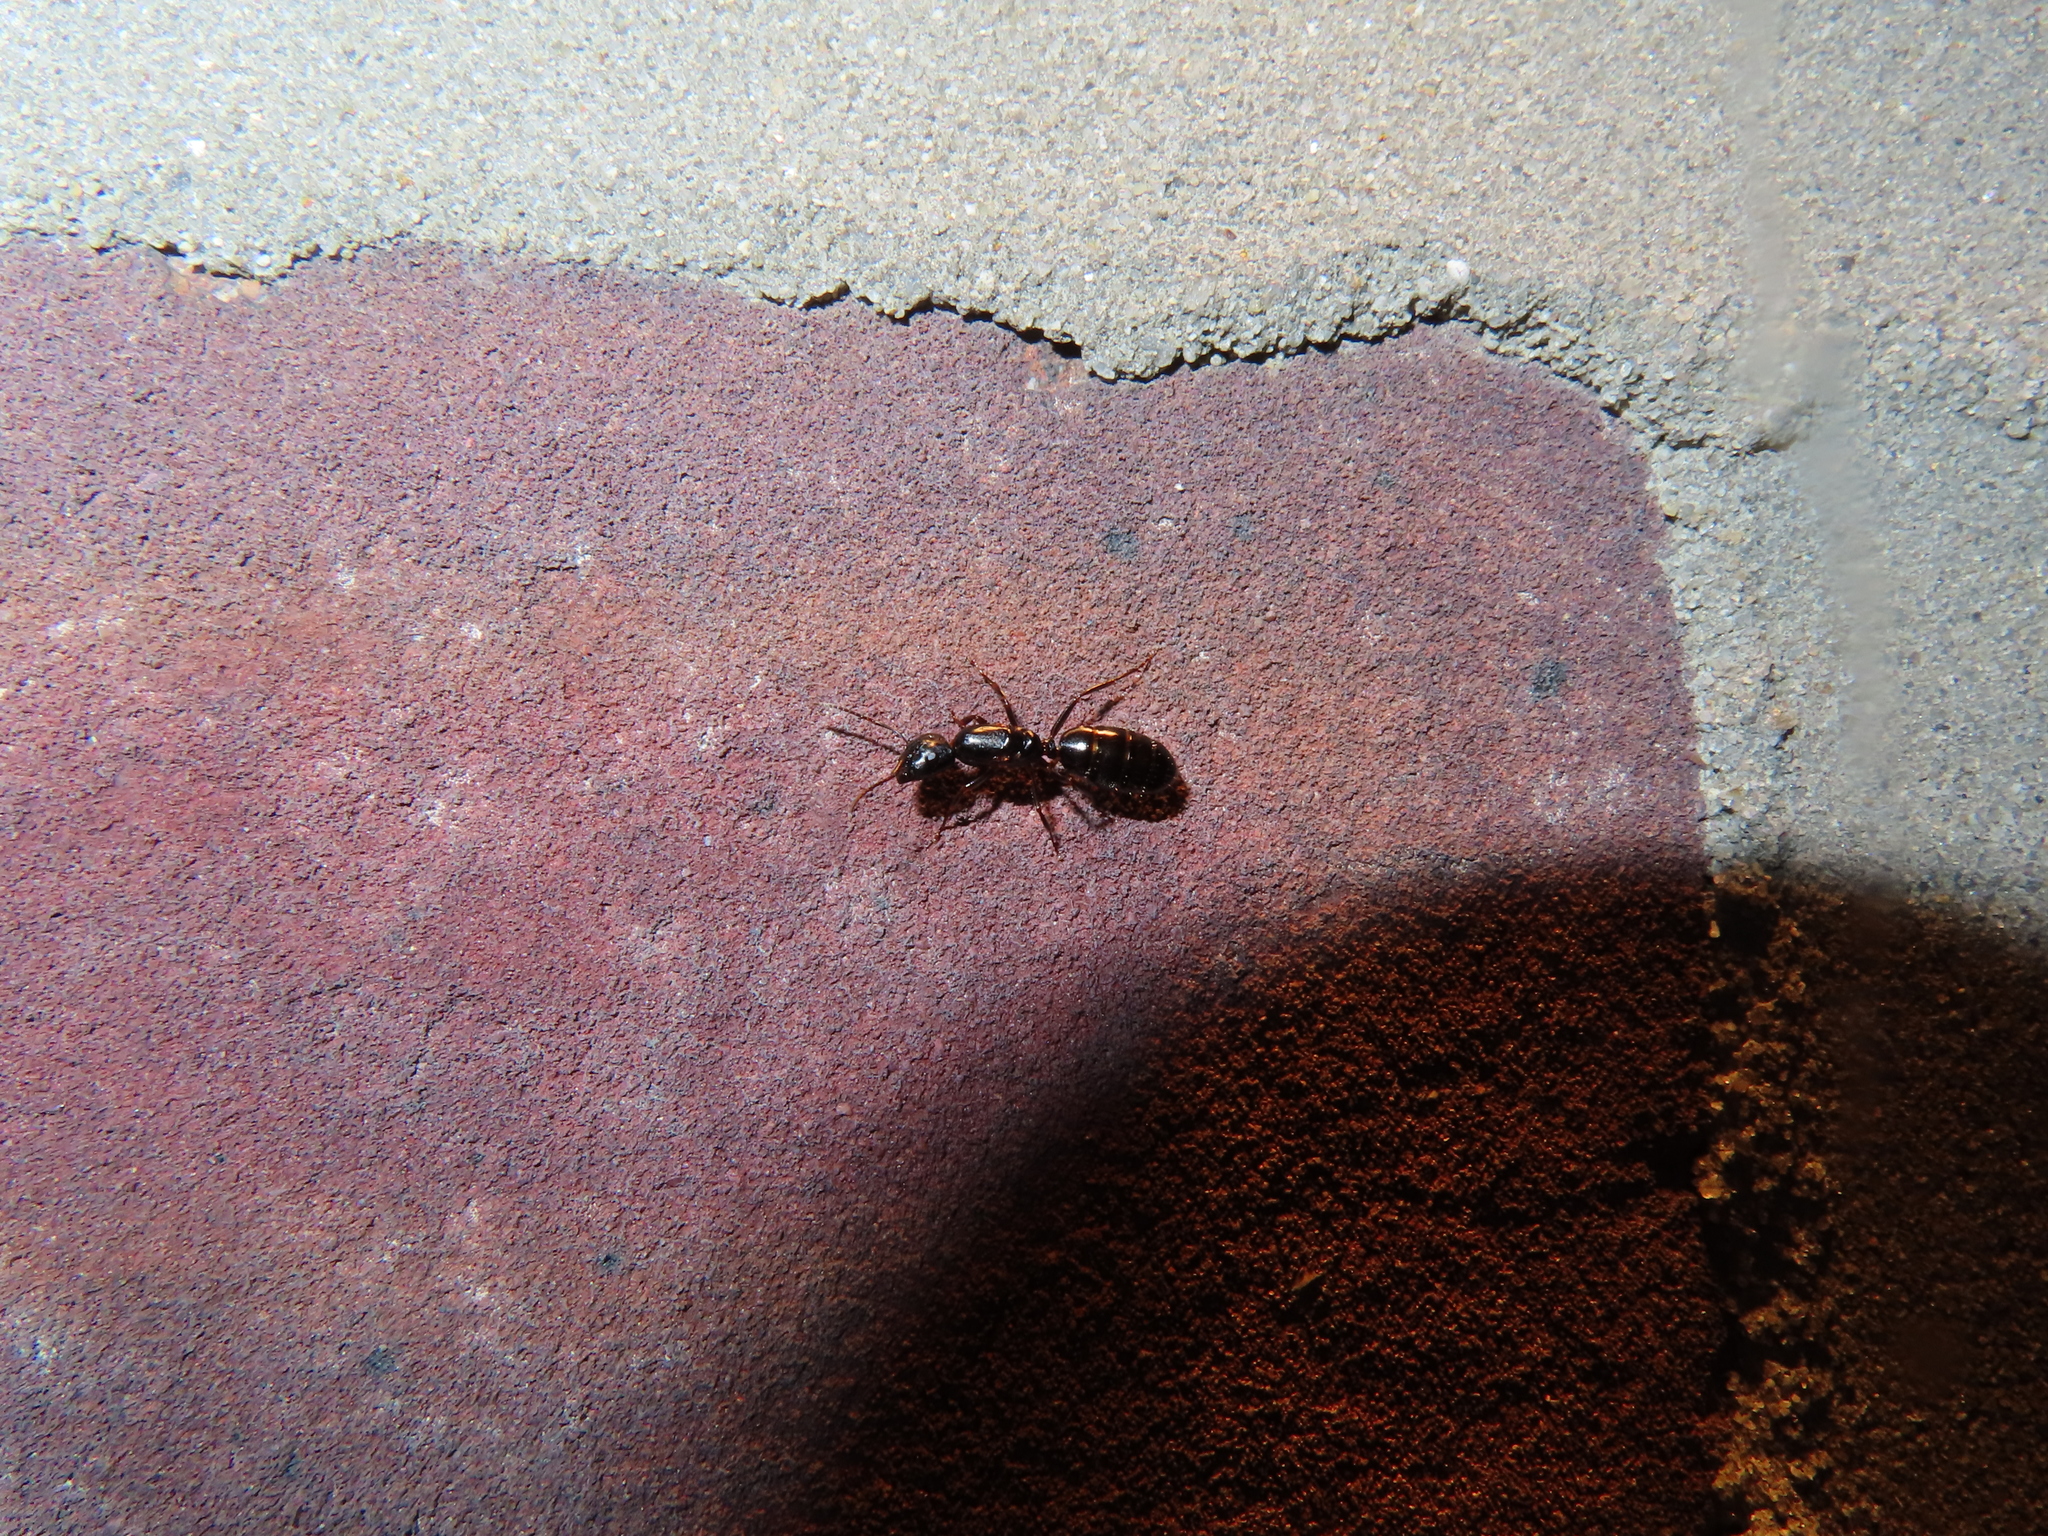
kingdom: Animalia
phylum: Arthropoda
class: Insecta
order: Hymenoptera
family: Formicidae
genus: Camponotus
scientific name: Camponotus nearcticus
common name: Smaller carpenter ant
